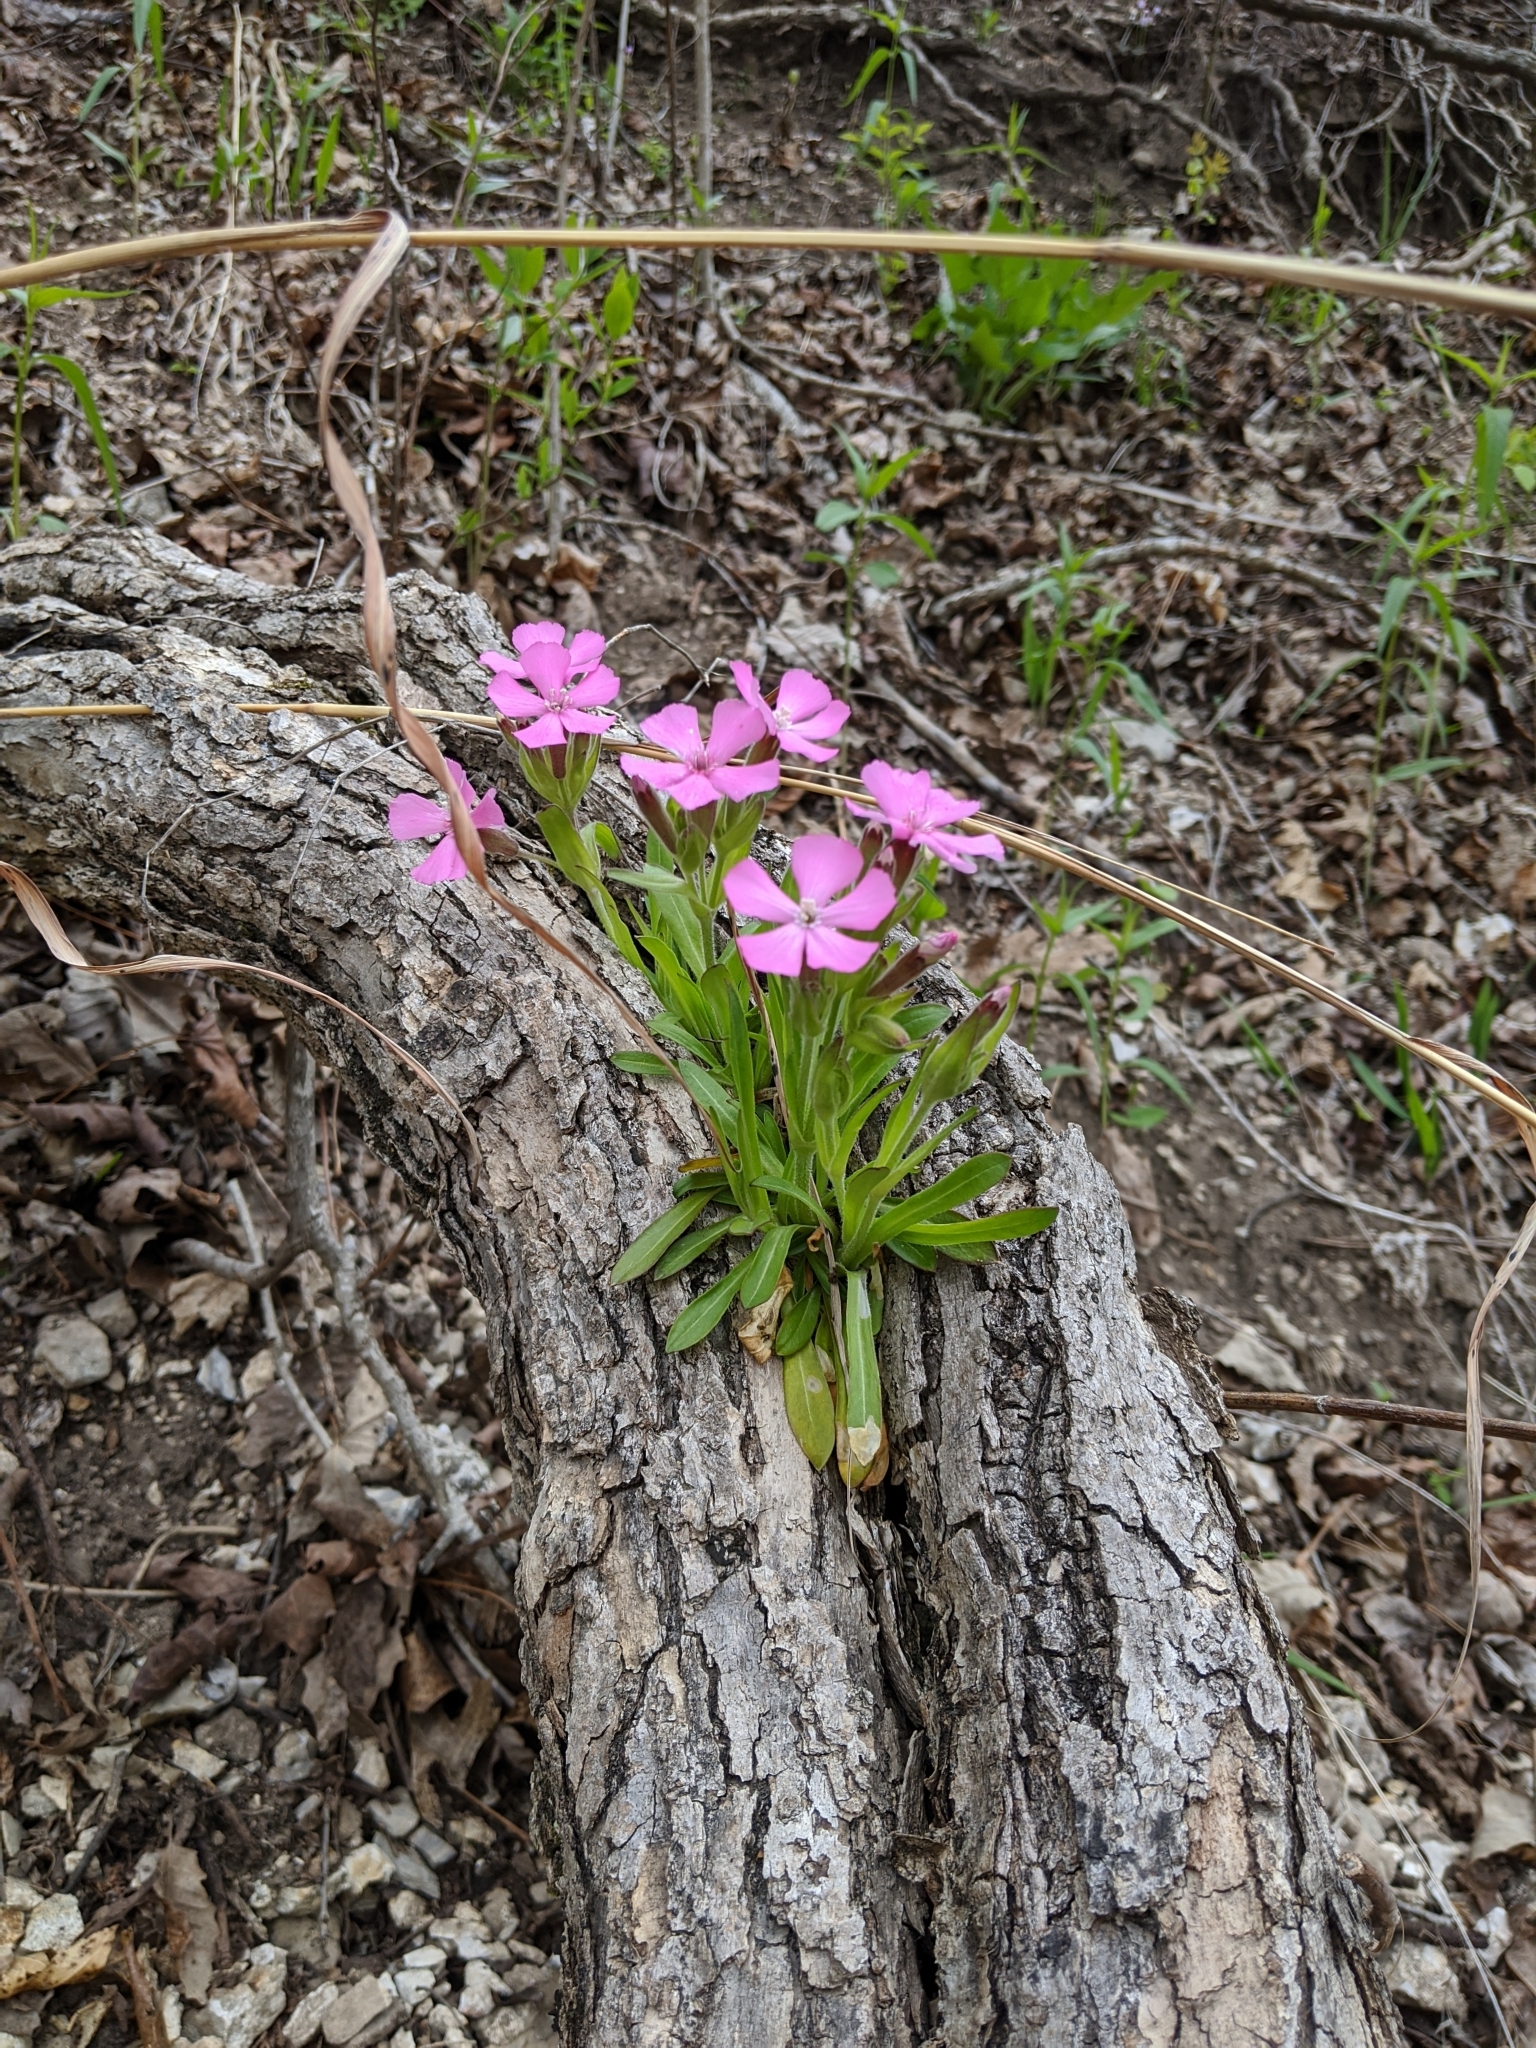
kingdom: Plantae
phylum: Tracheophyta
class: Magnoliopsida
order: Caryophyllales
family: Caryophyllaceae
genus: Silene
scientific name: Silene caroliniana
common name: Sticky catchfly
